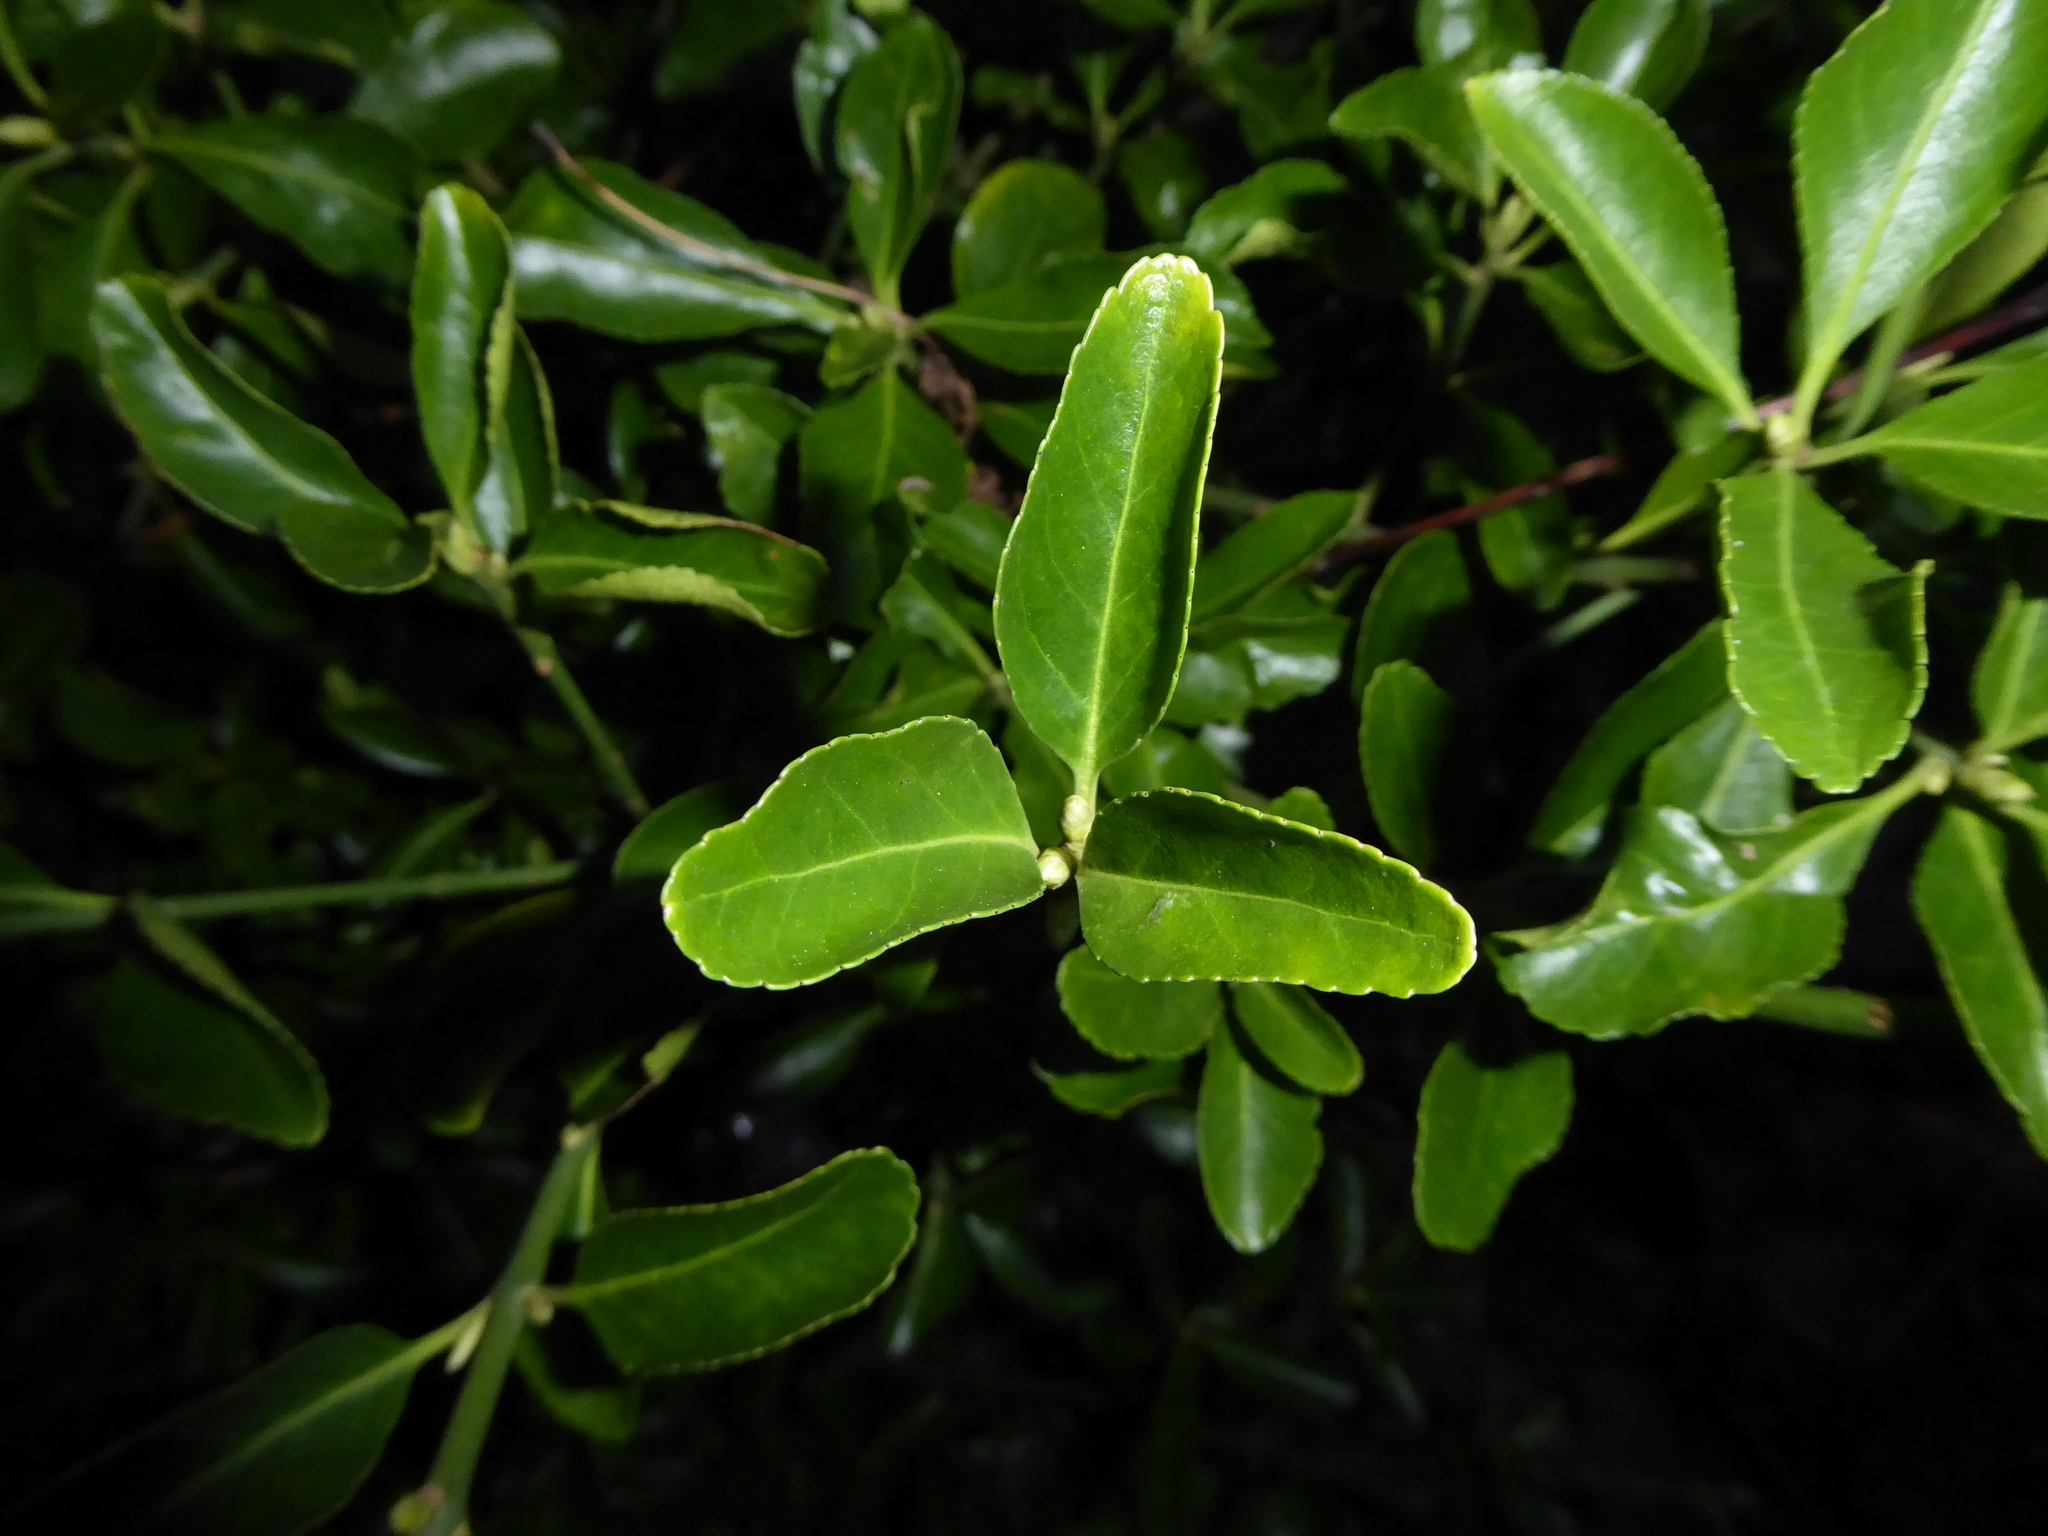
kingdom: Plantae
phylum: Tracheophyta
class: Magnoliopsida
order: Celastrales
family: Celastraceae
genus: Euonymus
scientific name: Euonymus japonicus
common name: Japanese spindletree
